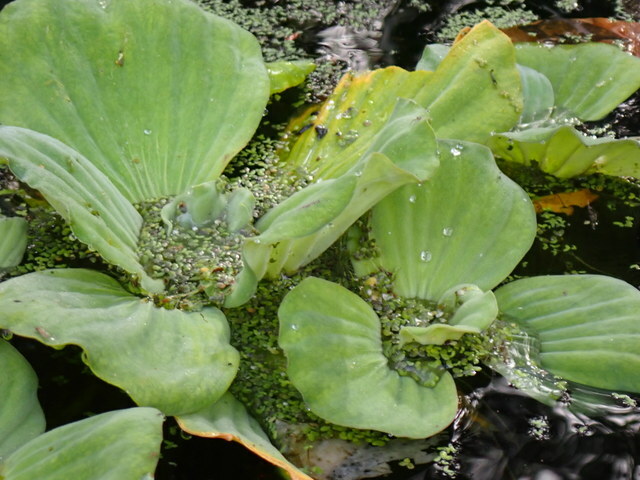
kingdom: Plantae
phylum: Tracheophyta
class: Liliopsida
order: Alismatales
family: Araceae
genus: Pistia
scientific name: Pistia stratiotes
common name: Water lettuce
